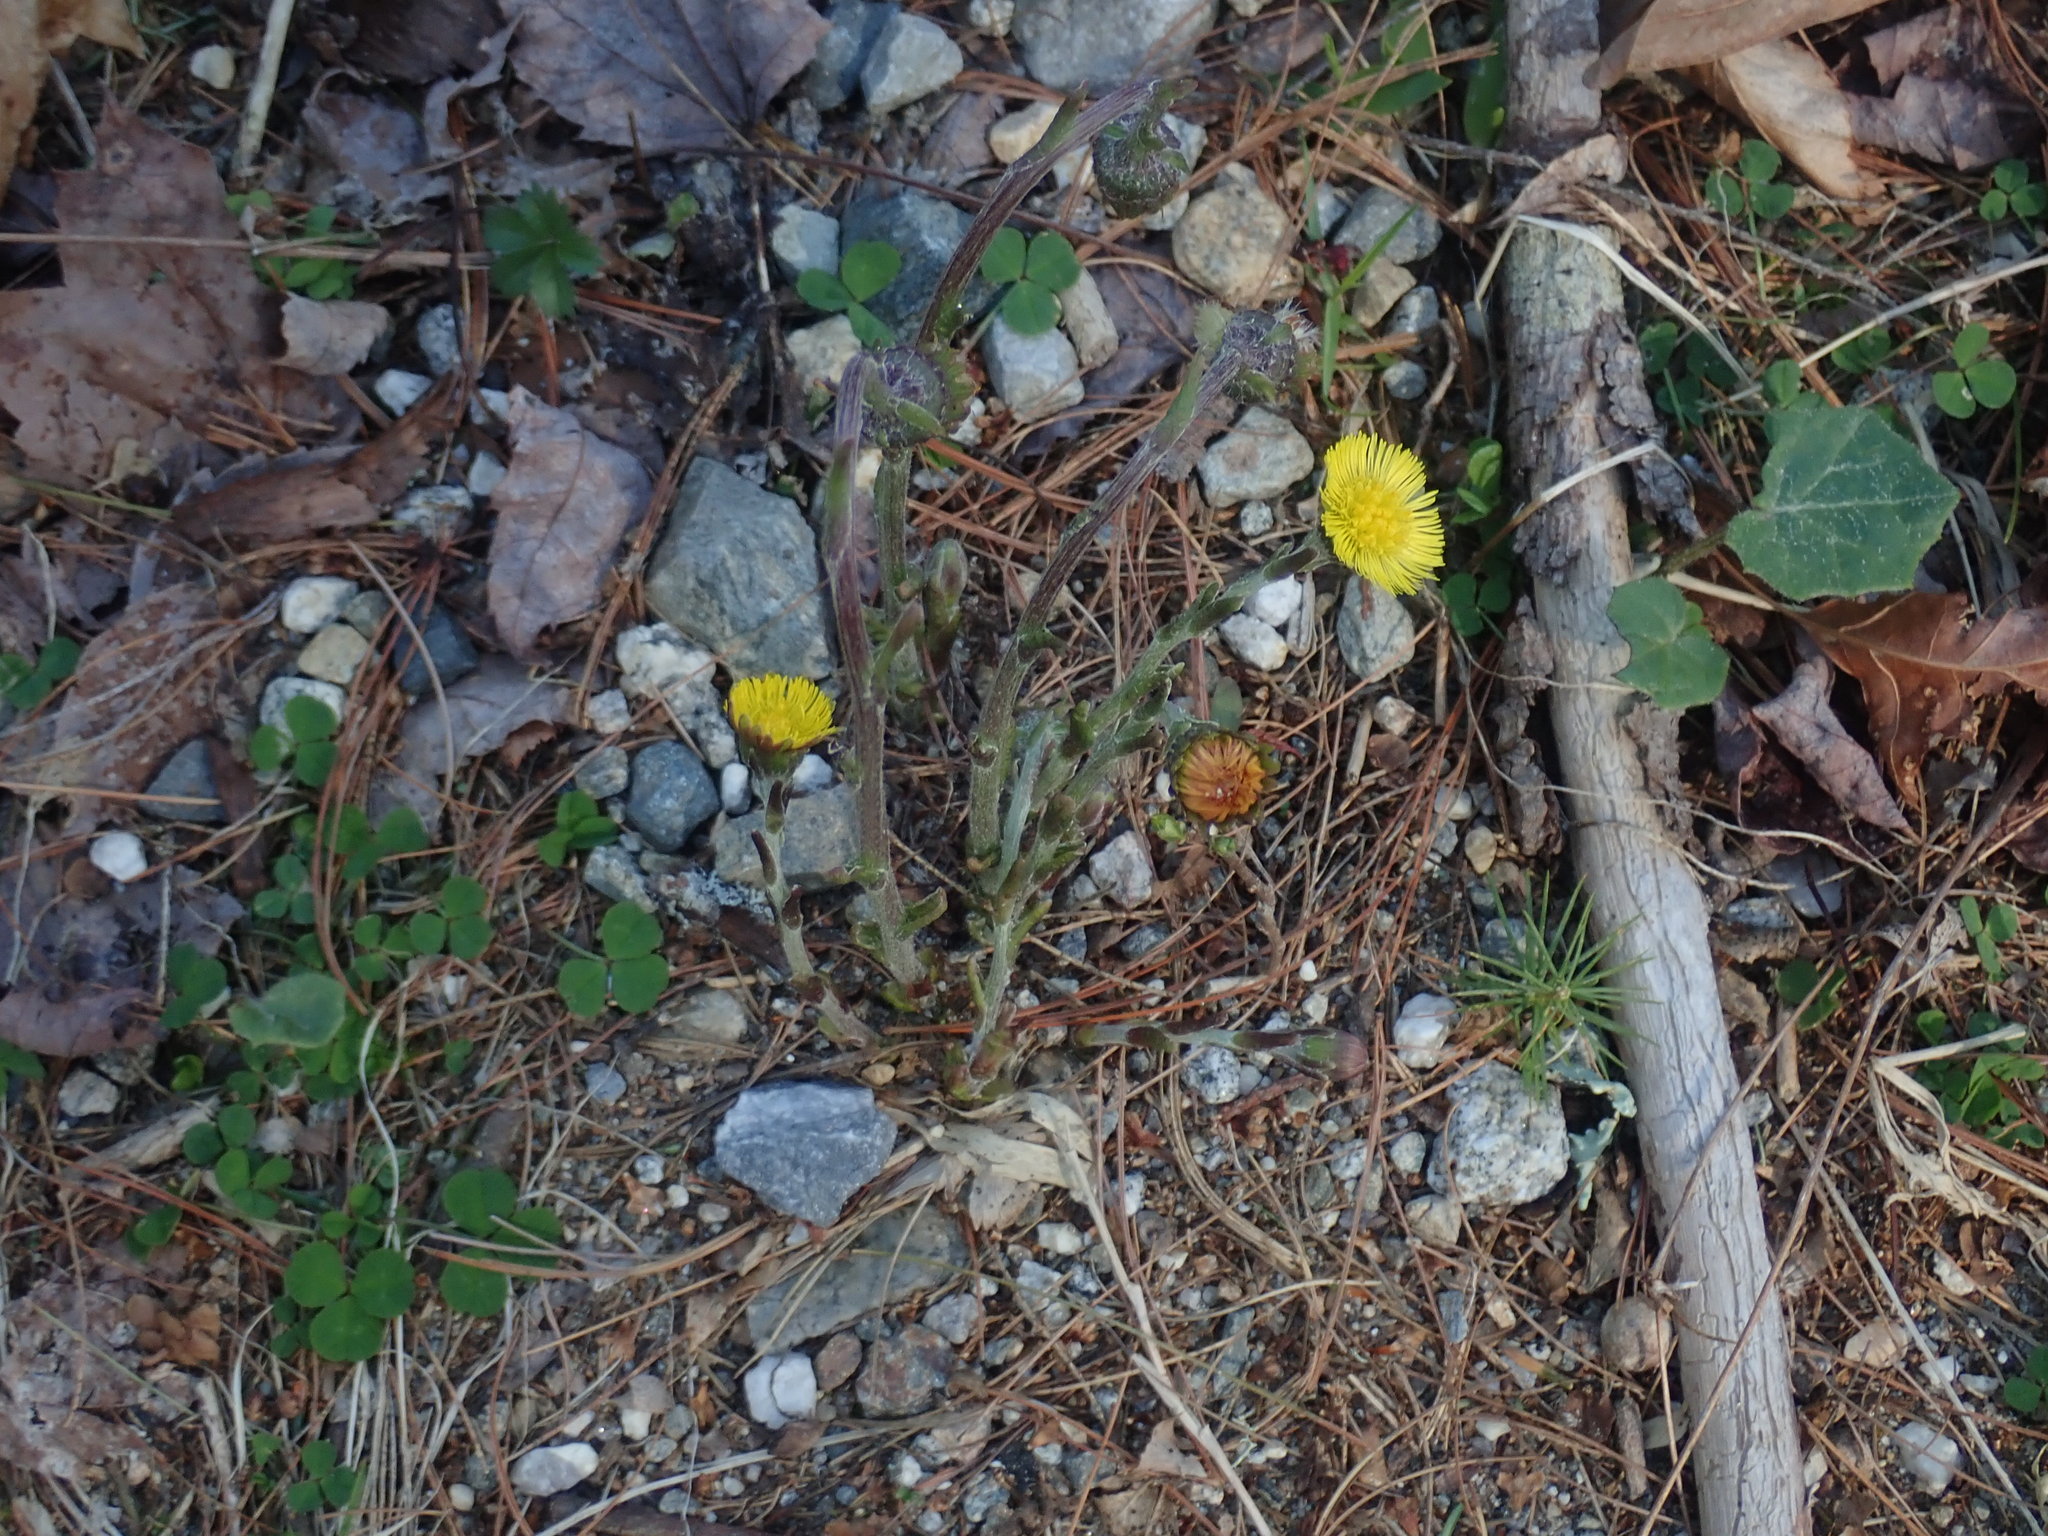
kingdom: Plantae
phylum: Tracheophyta
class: Magnoliopsida
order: Asterales
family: Asteraceae
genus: Tussilago
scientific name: Tussilago farfara
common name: Coltsfoot
